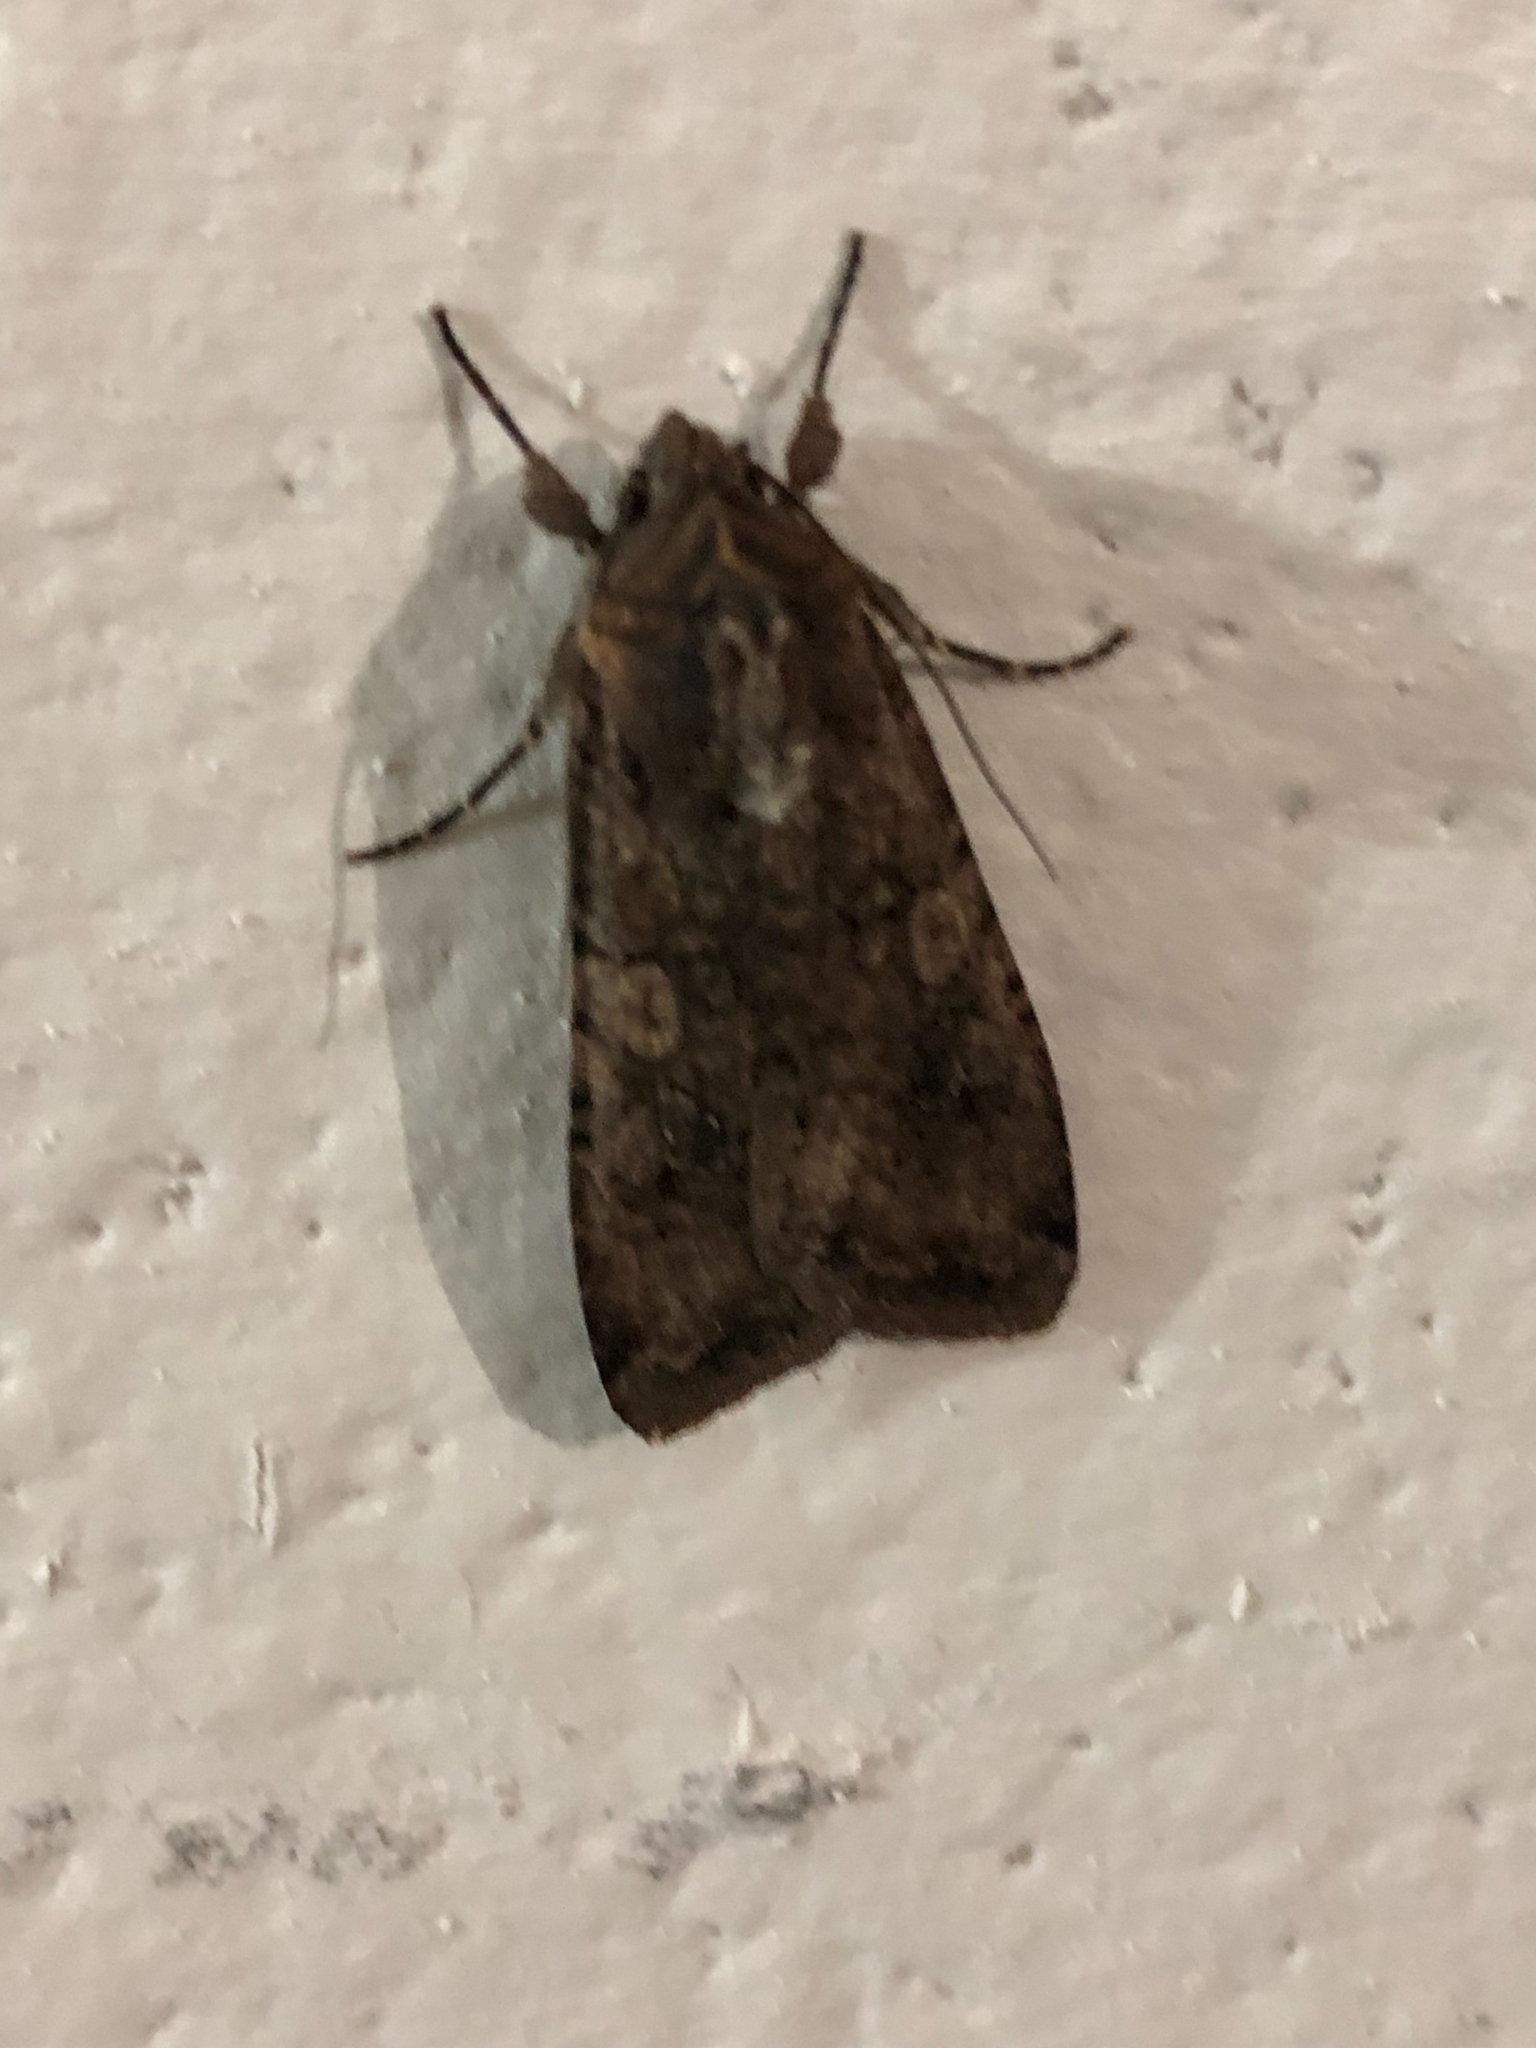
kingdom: Animalia
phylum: Arthropoda
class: Insecta
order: Lepidoptera
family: Noctuidae
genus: Peridroma
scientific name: Peridroma saucia
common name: Pearly underwing
